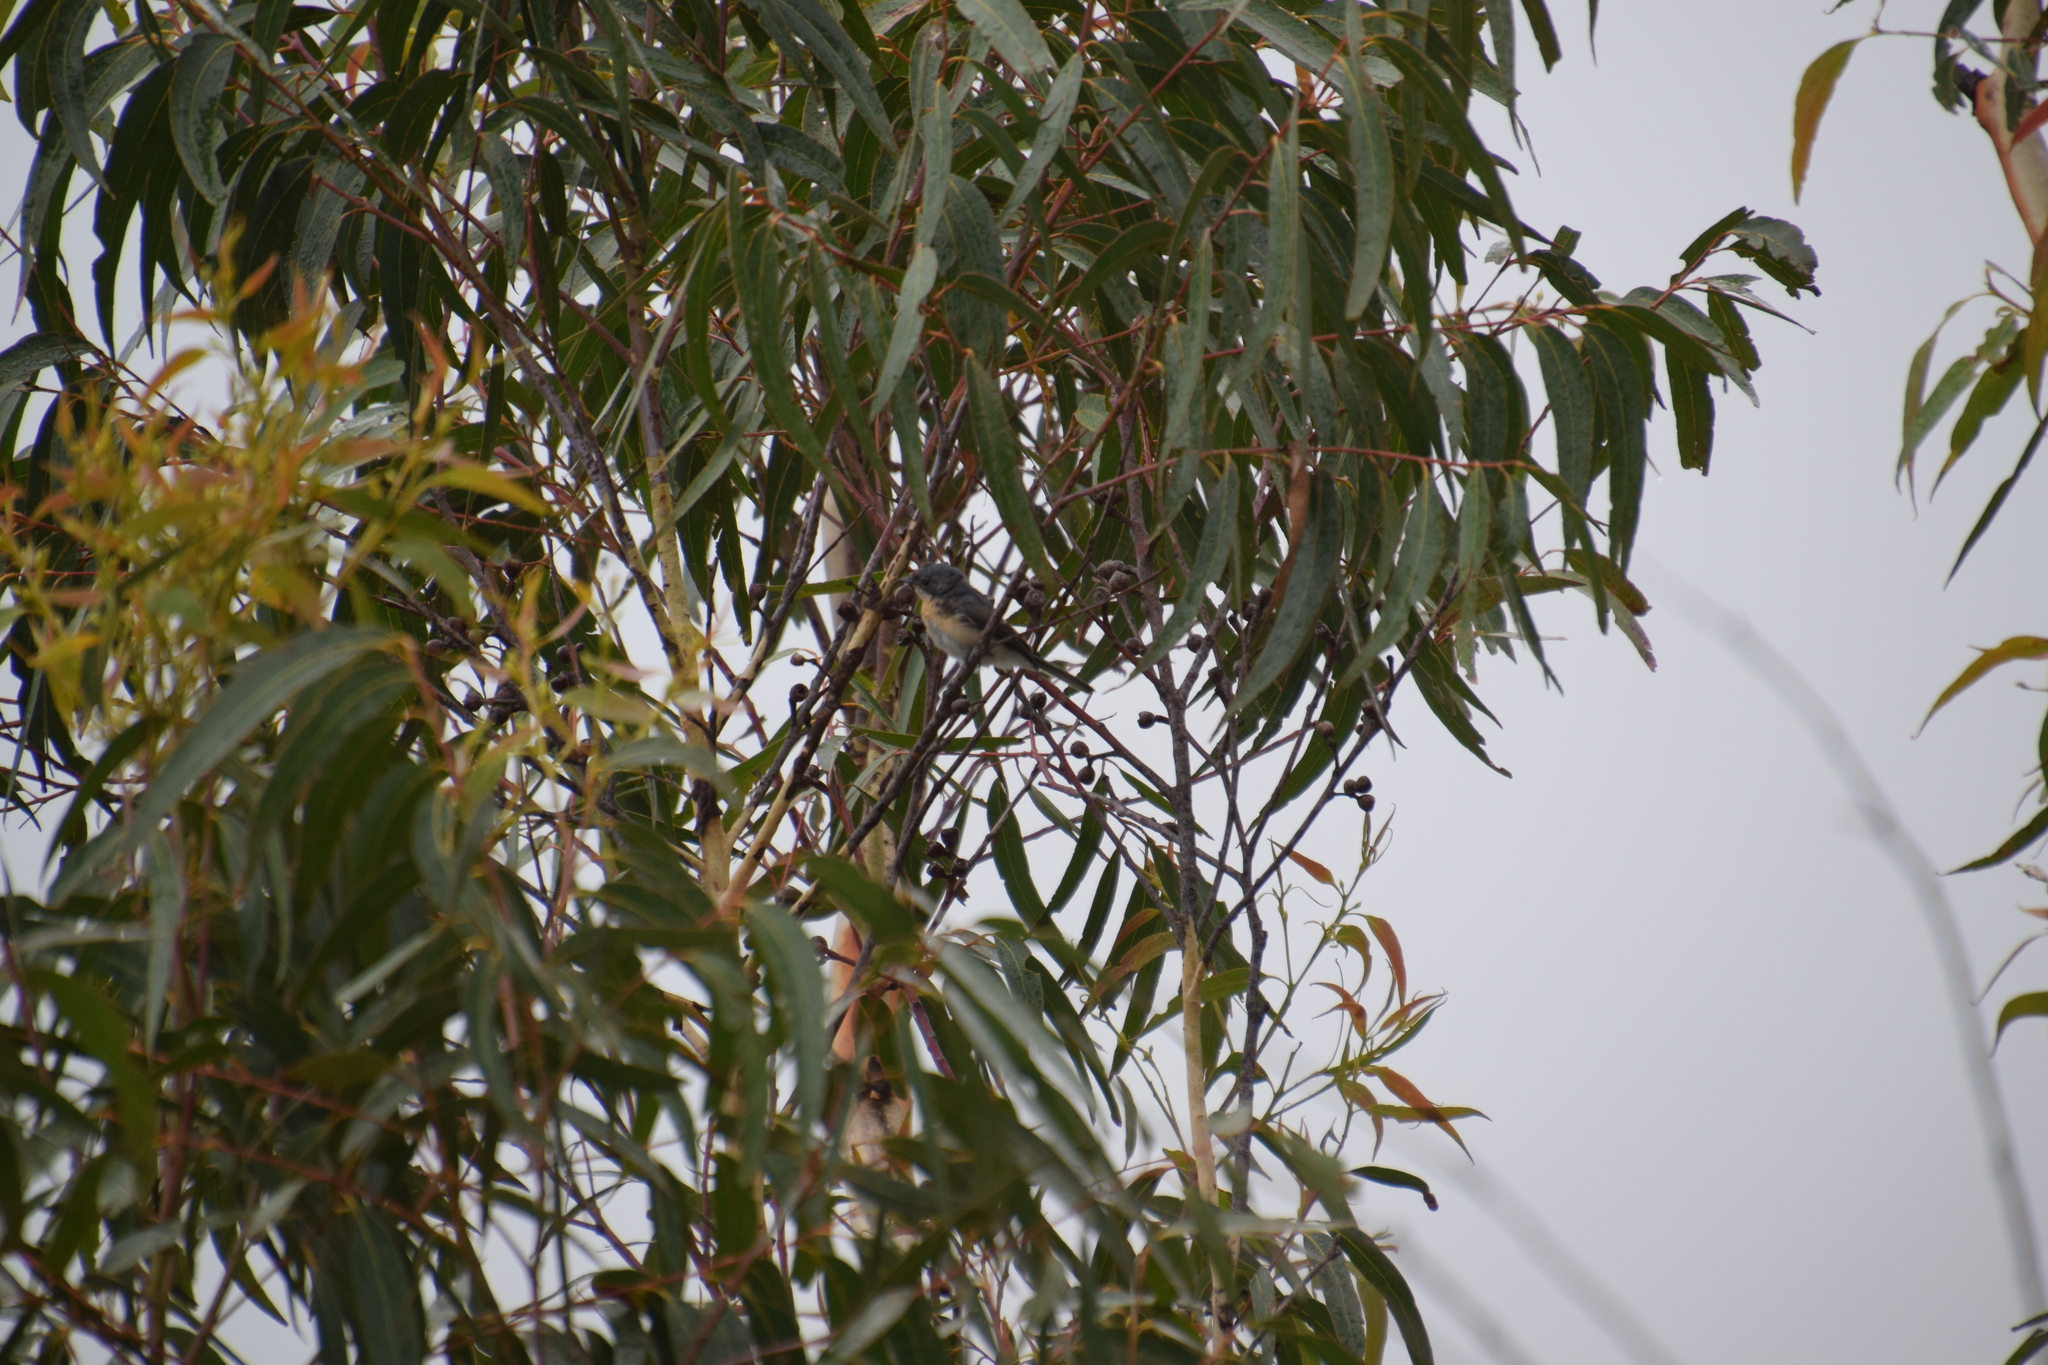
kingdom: Animalia
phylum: Chordata
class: Aves
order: Passeriformes
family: Monarchidae
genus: Myiagra
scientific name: Myiagra rubecula
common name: Leaden flycatcher
